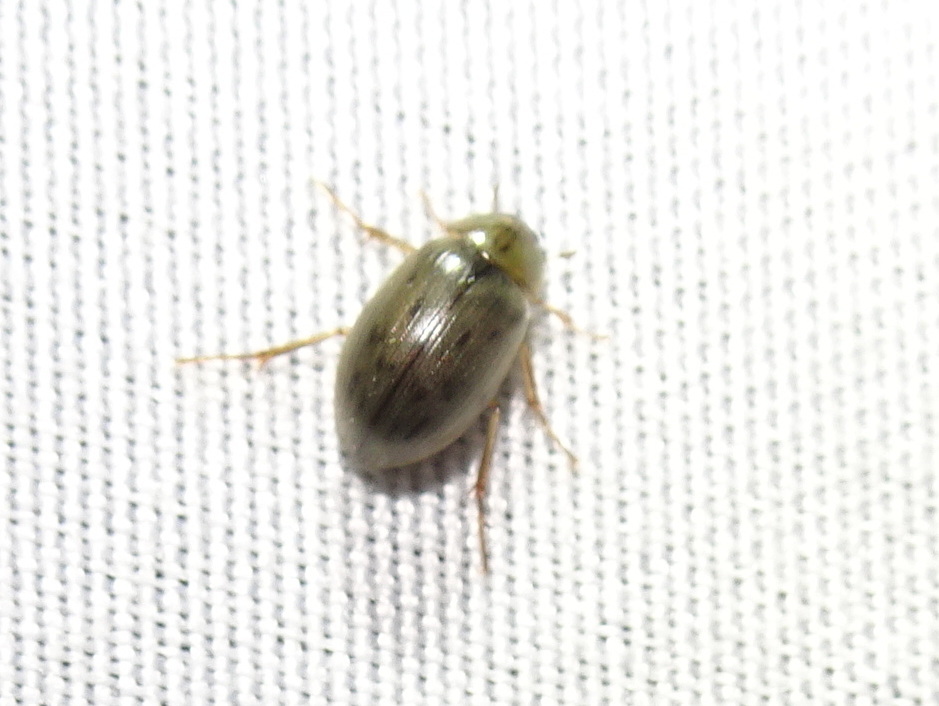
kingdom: Animalia
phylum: Arthropoda
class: Insecta
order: Coleoptera
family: Hydrophilidae
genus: Berosus
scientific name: Berosus
